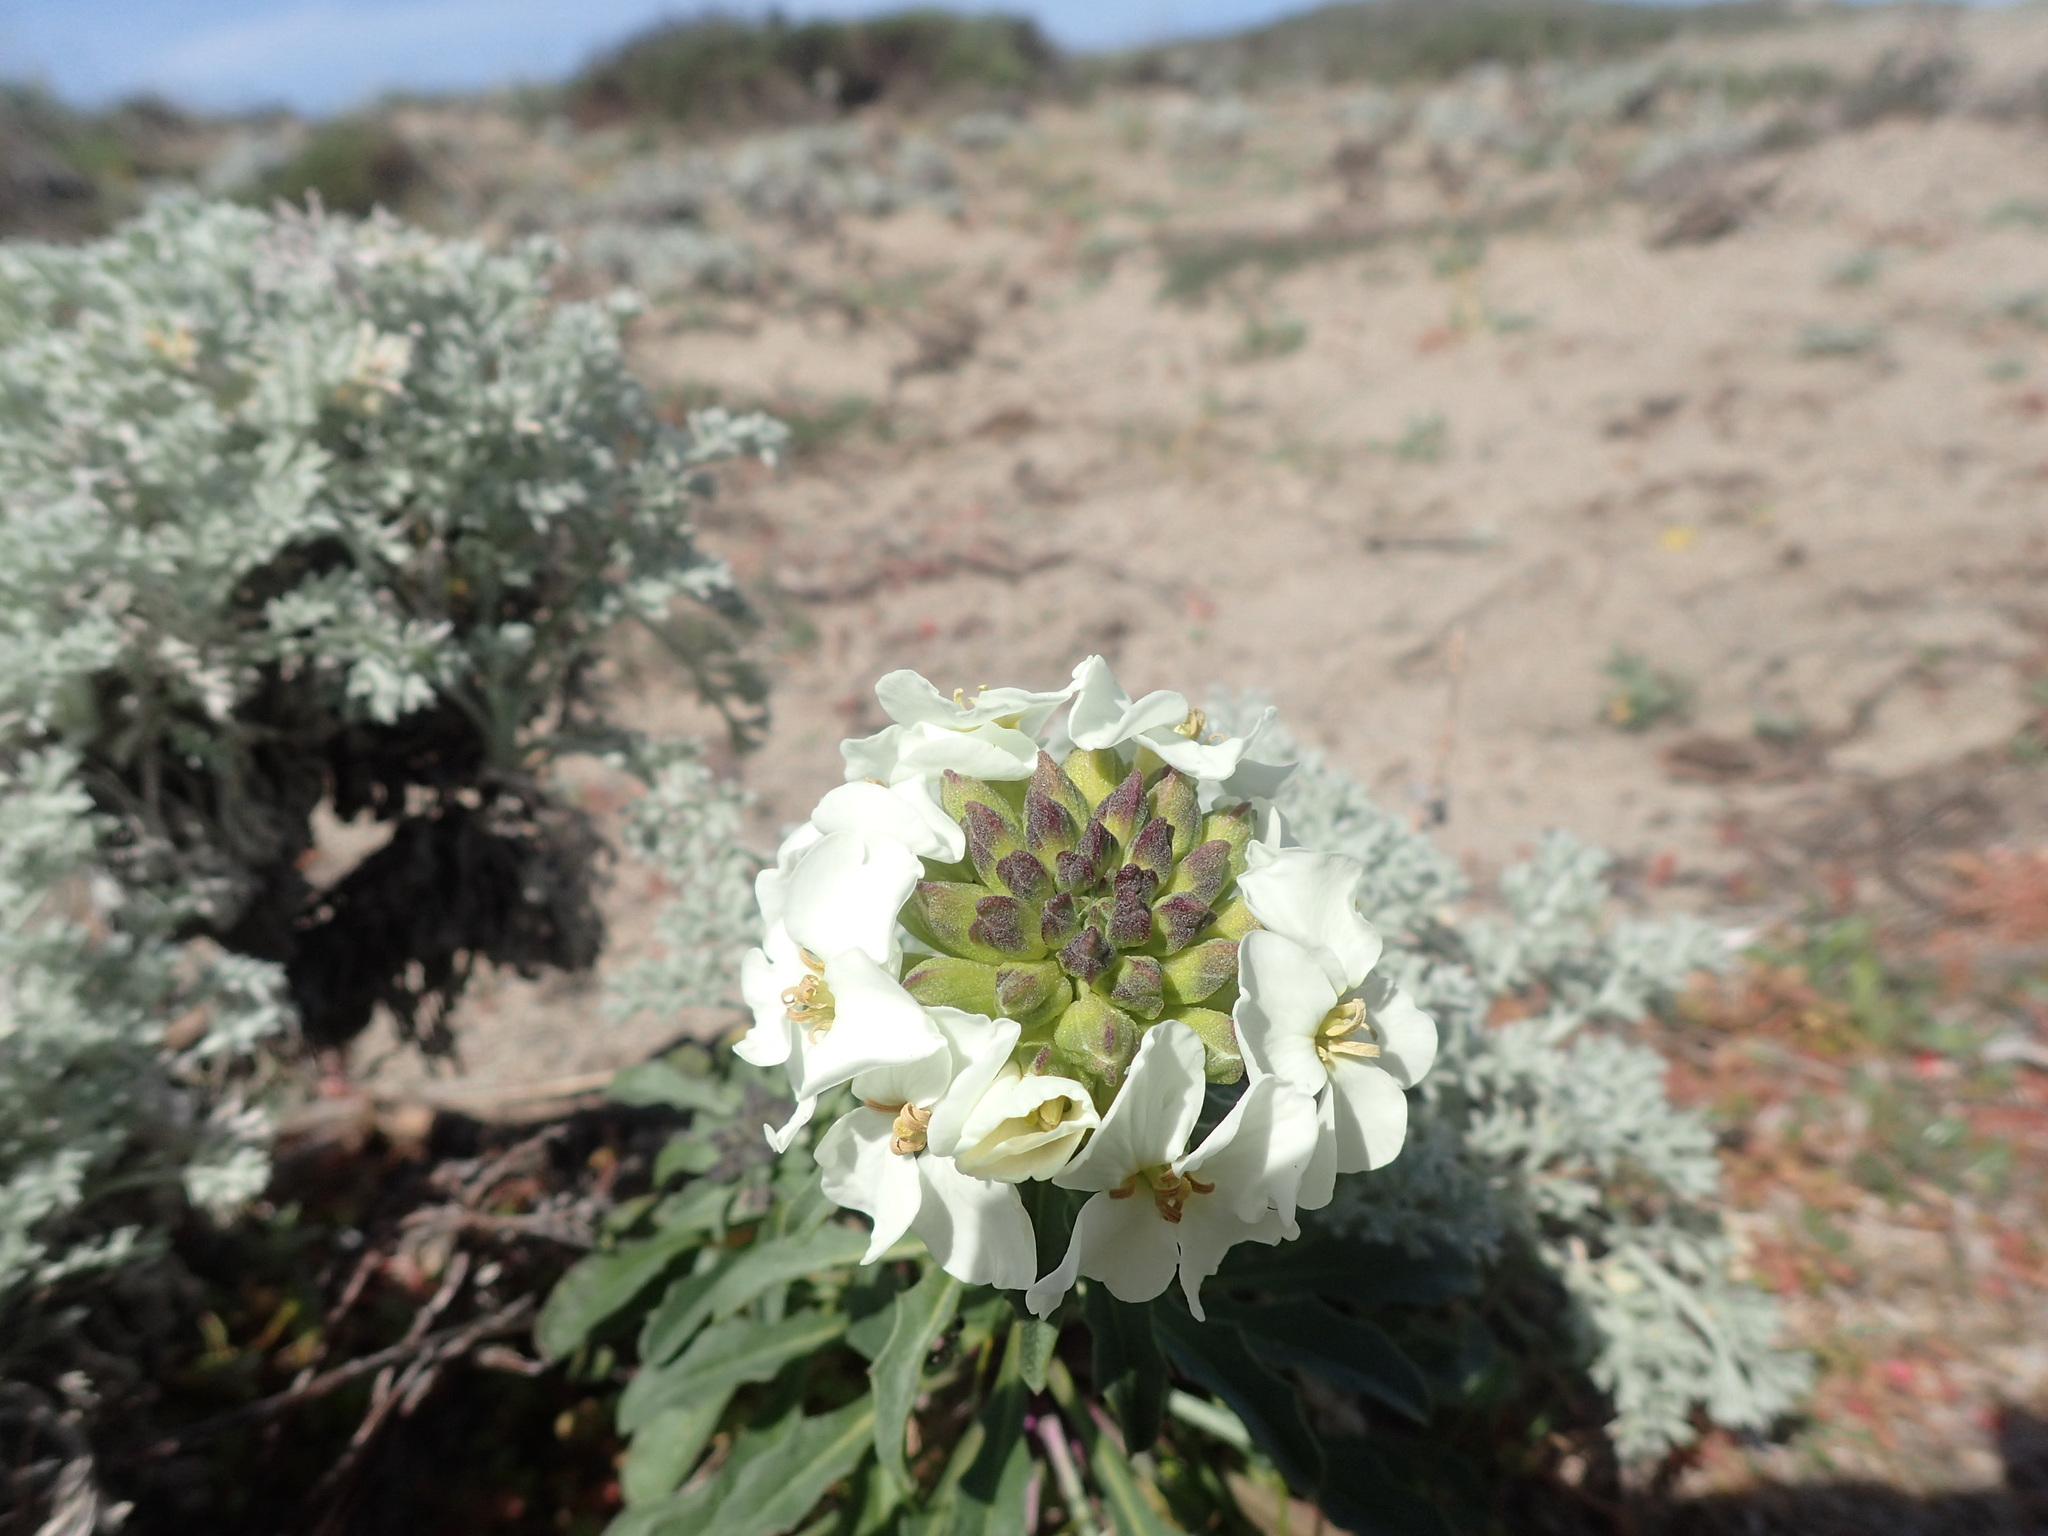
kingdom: Plantae
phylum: Tracheophyta
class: Magnoliopsida
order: Brassicales
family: Brassicaceae
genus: Erysimum
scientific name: Erysimum concinnum
